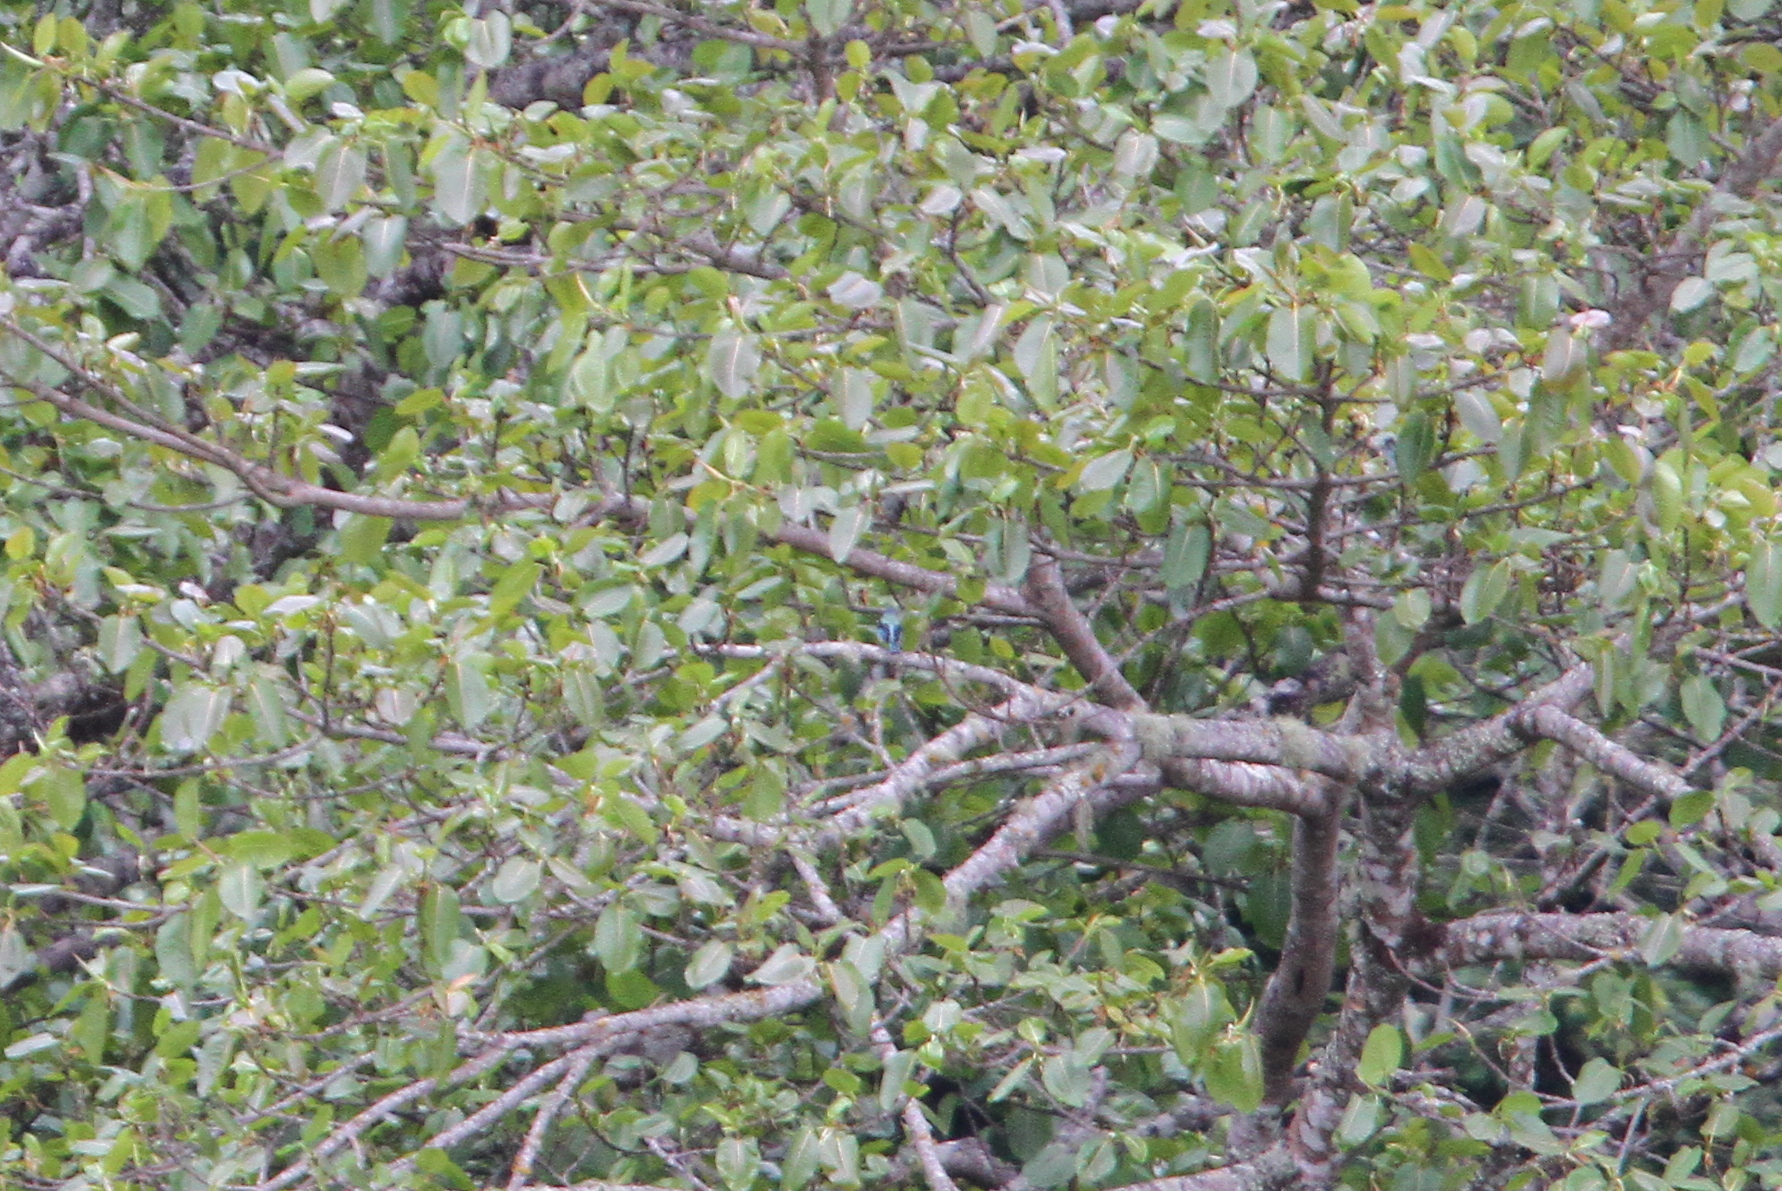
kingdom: Animalia
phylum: Chordata
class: Aves
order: Passeriformes
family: Thraupidae
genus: Poecilostreptus
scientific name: Poecilostreptus cabanisi
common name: Azure-rumped tanager
